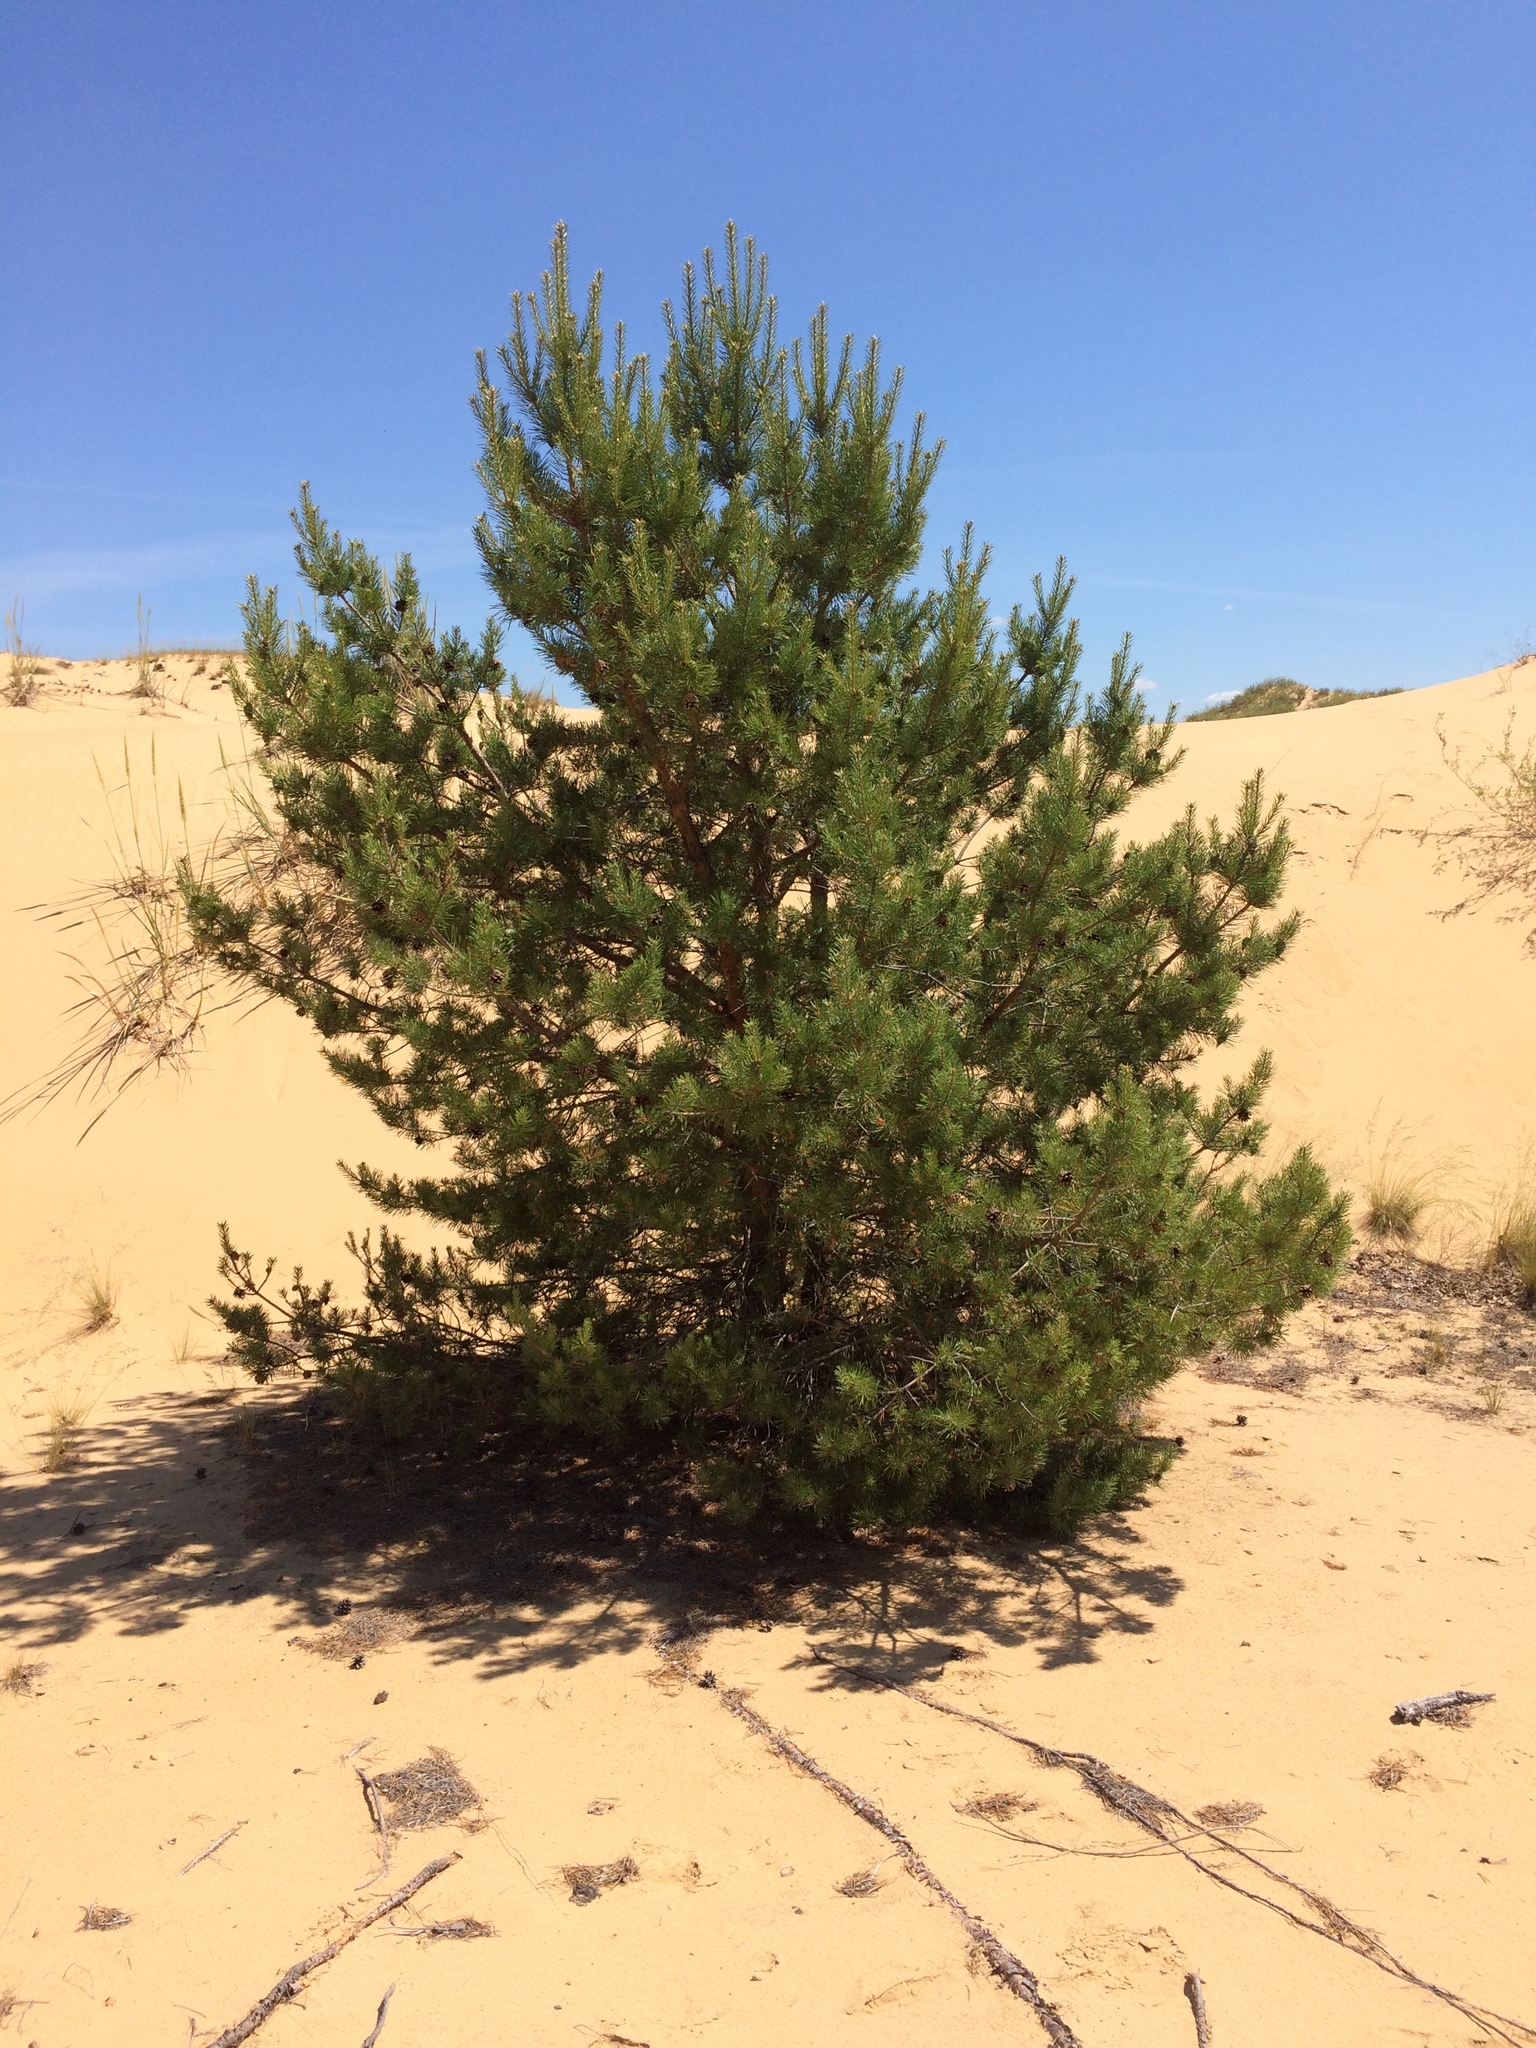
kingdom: Plantae
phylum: Tracheophyta
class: Pinopsida
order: Pinales
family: Pinaceae
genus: Pinus
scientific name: Pinus sylvestris
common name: Scots pine
